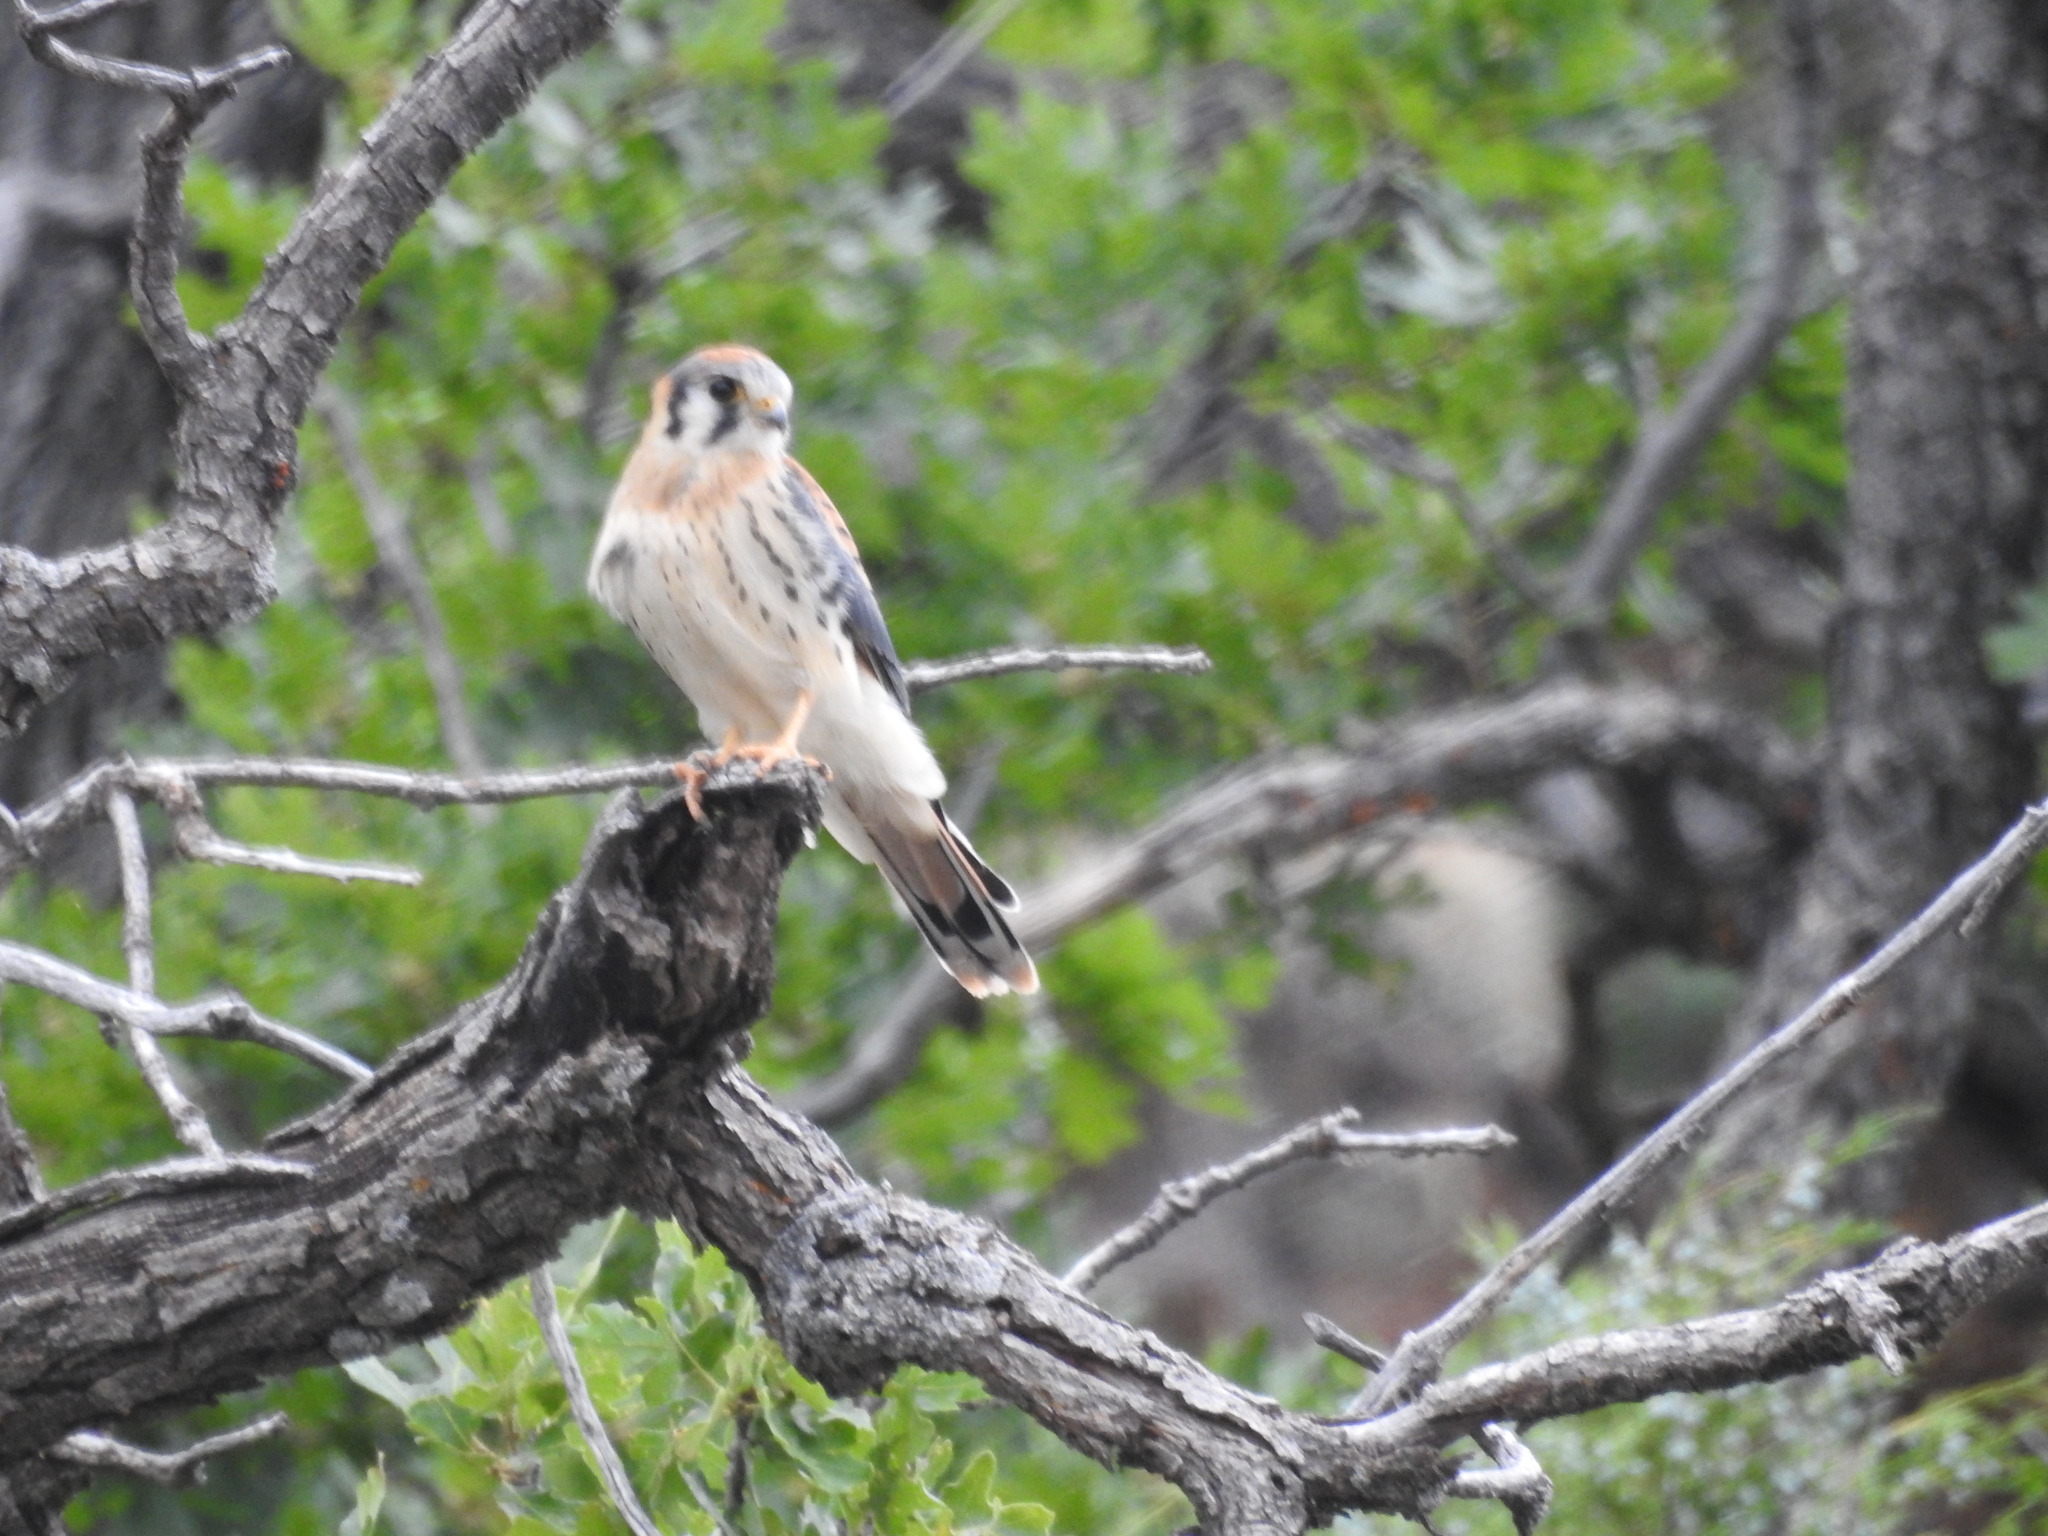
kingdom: Animalia
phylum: Chordata
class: Aves
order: Falconiformes
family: Falconidae
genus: Falco
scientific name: Falco sparverius
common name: American kestrel
